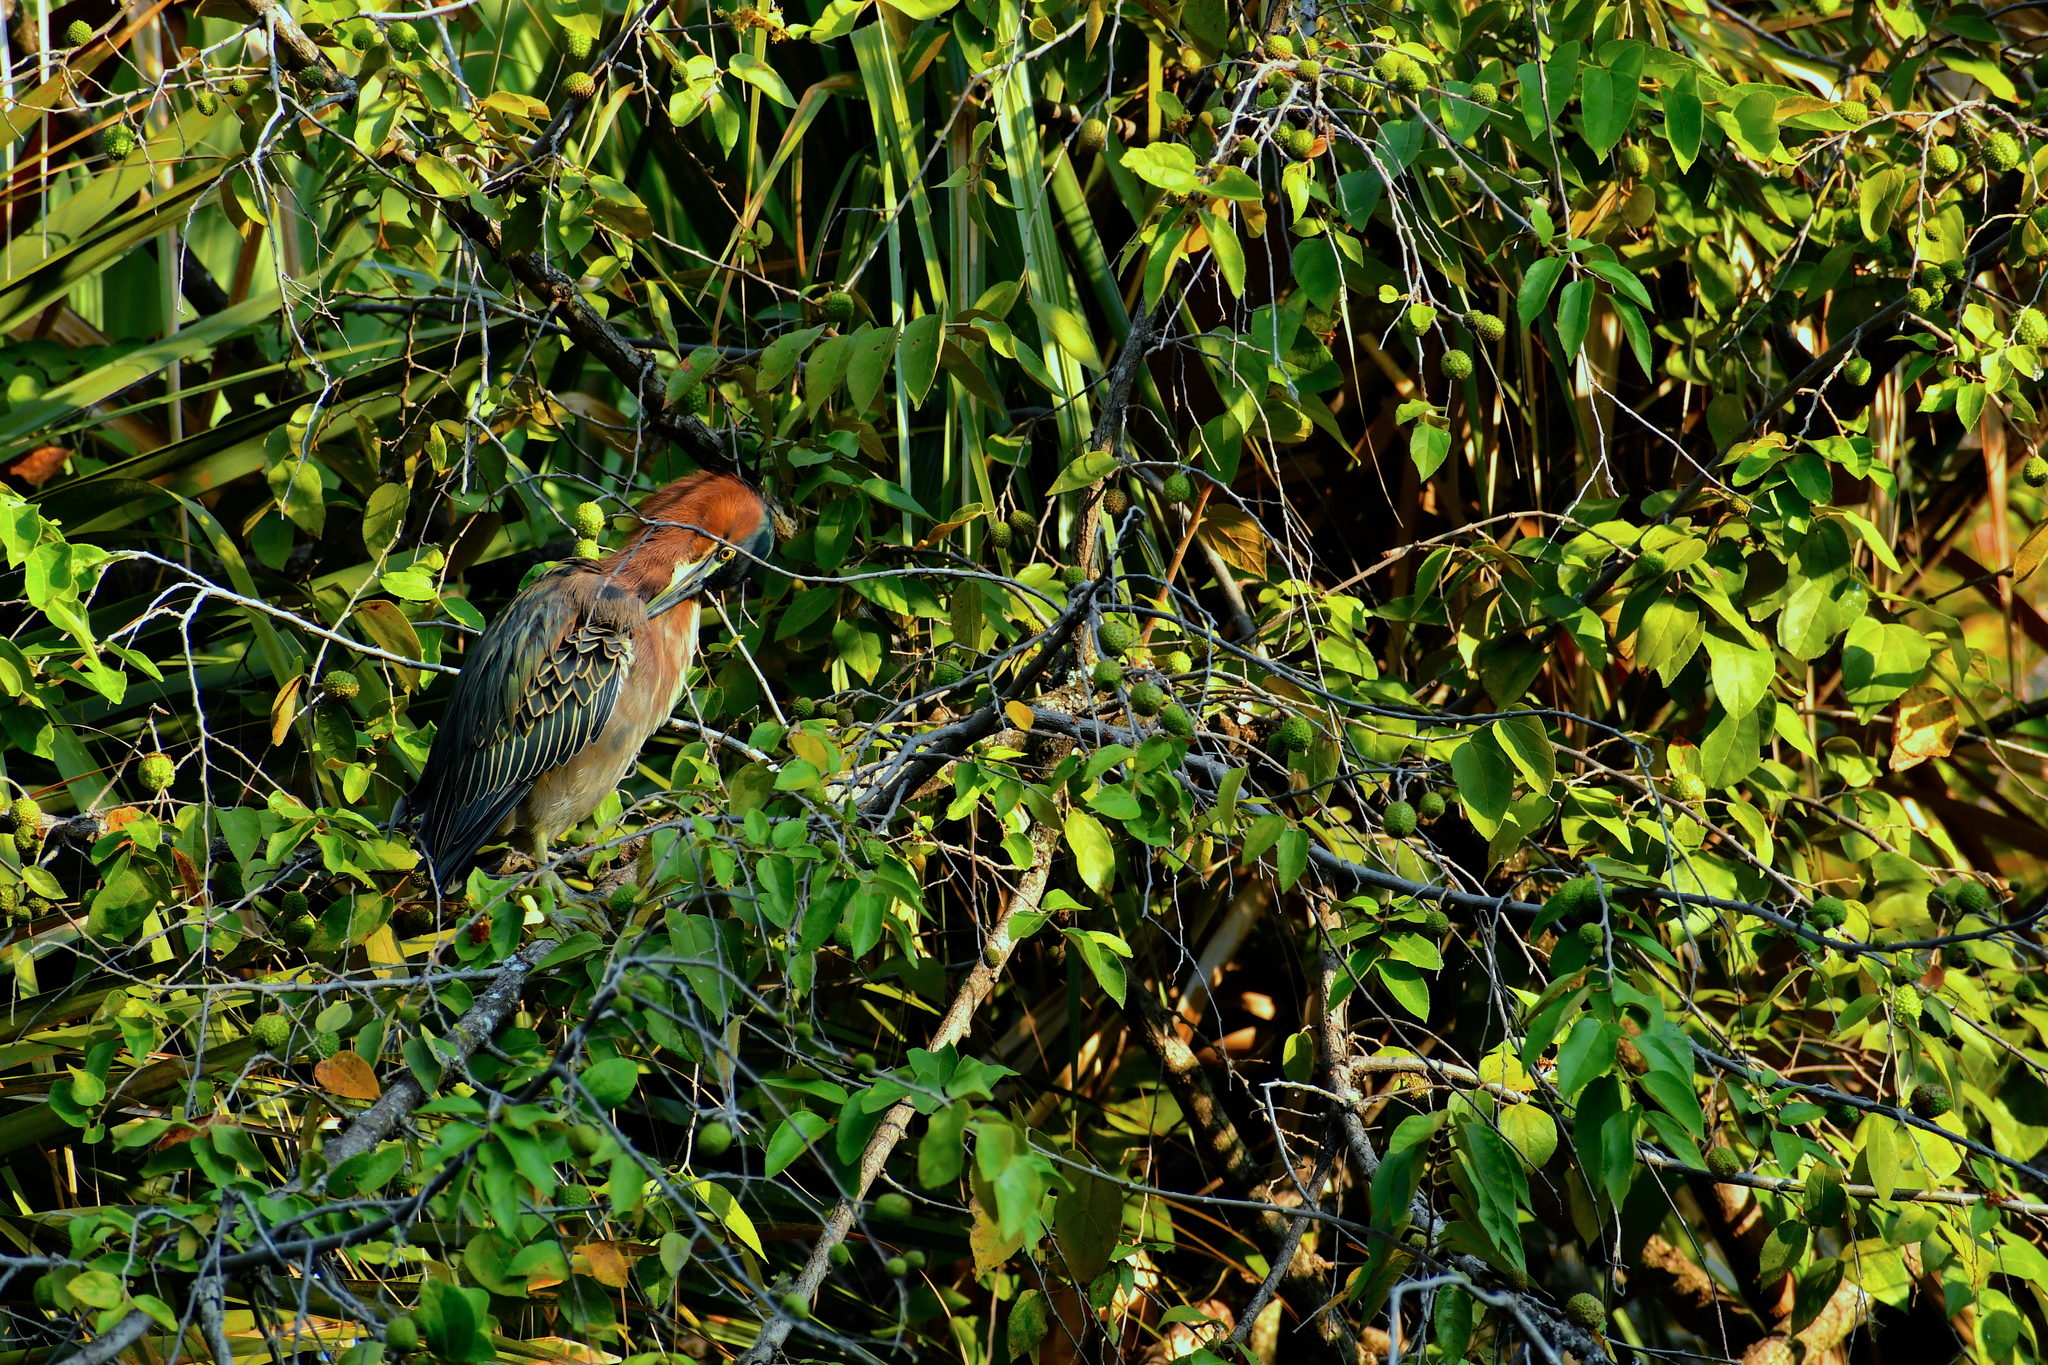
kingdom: Animalia
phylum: Chordata
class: Aves
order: Pelecaniformes
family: Ardeidae
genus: Butorides
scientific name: Butorides virescens
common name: Green heron
